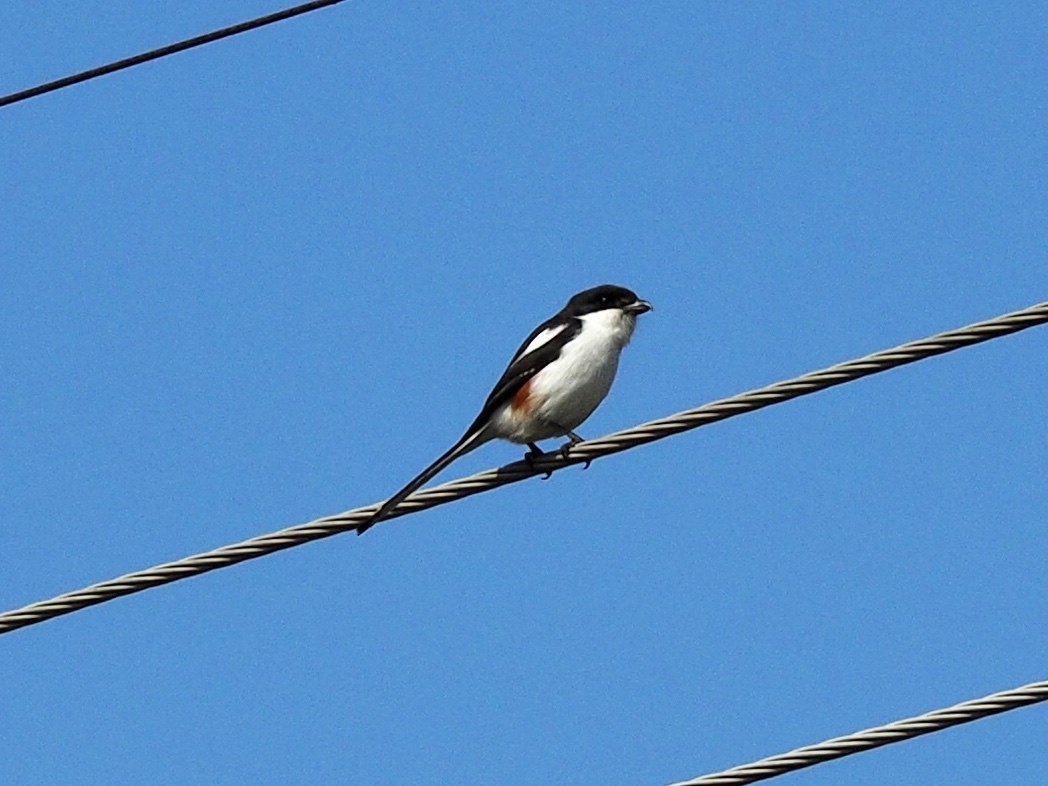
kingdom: Animalia
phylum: Chordata
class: Aves
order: Passeriformes
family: Laniidae
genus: Lanius
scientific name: Lanius collaris
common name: Southern fiscal
